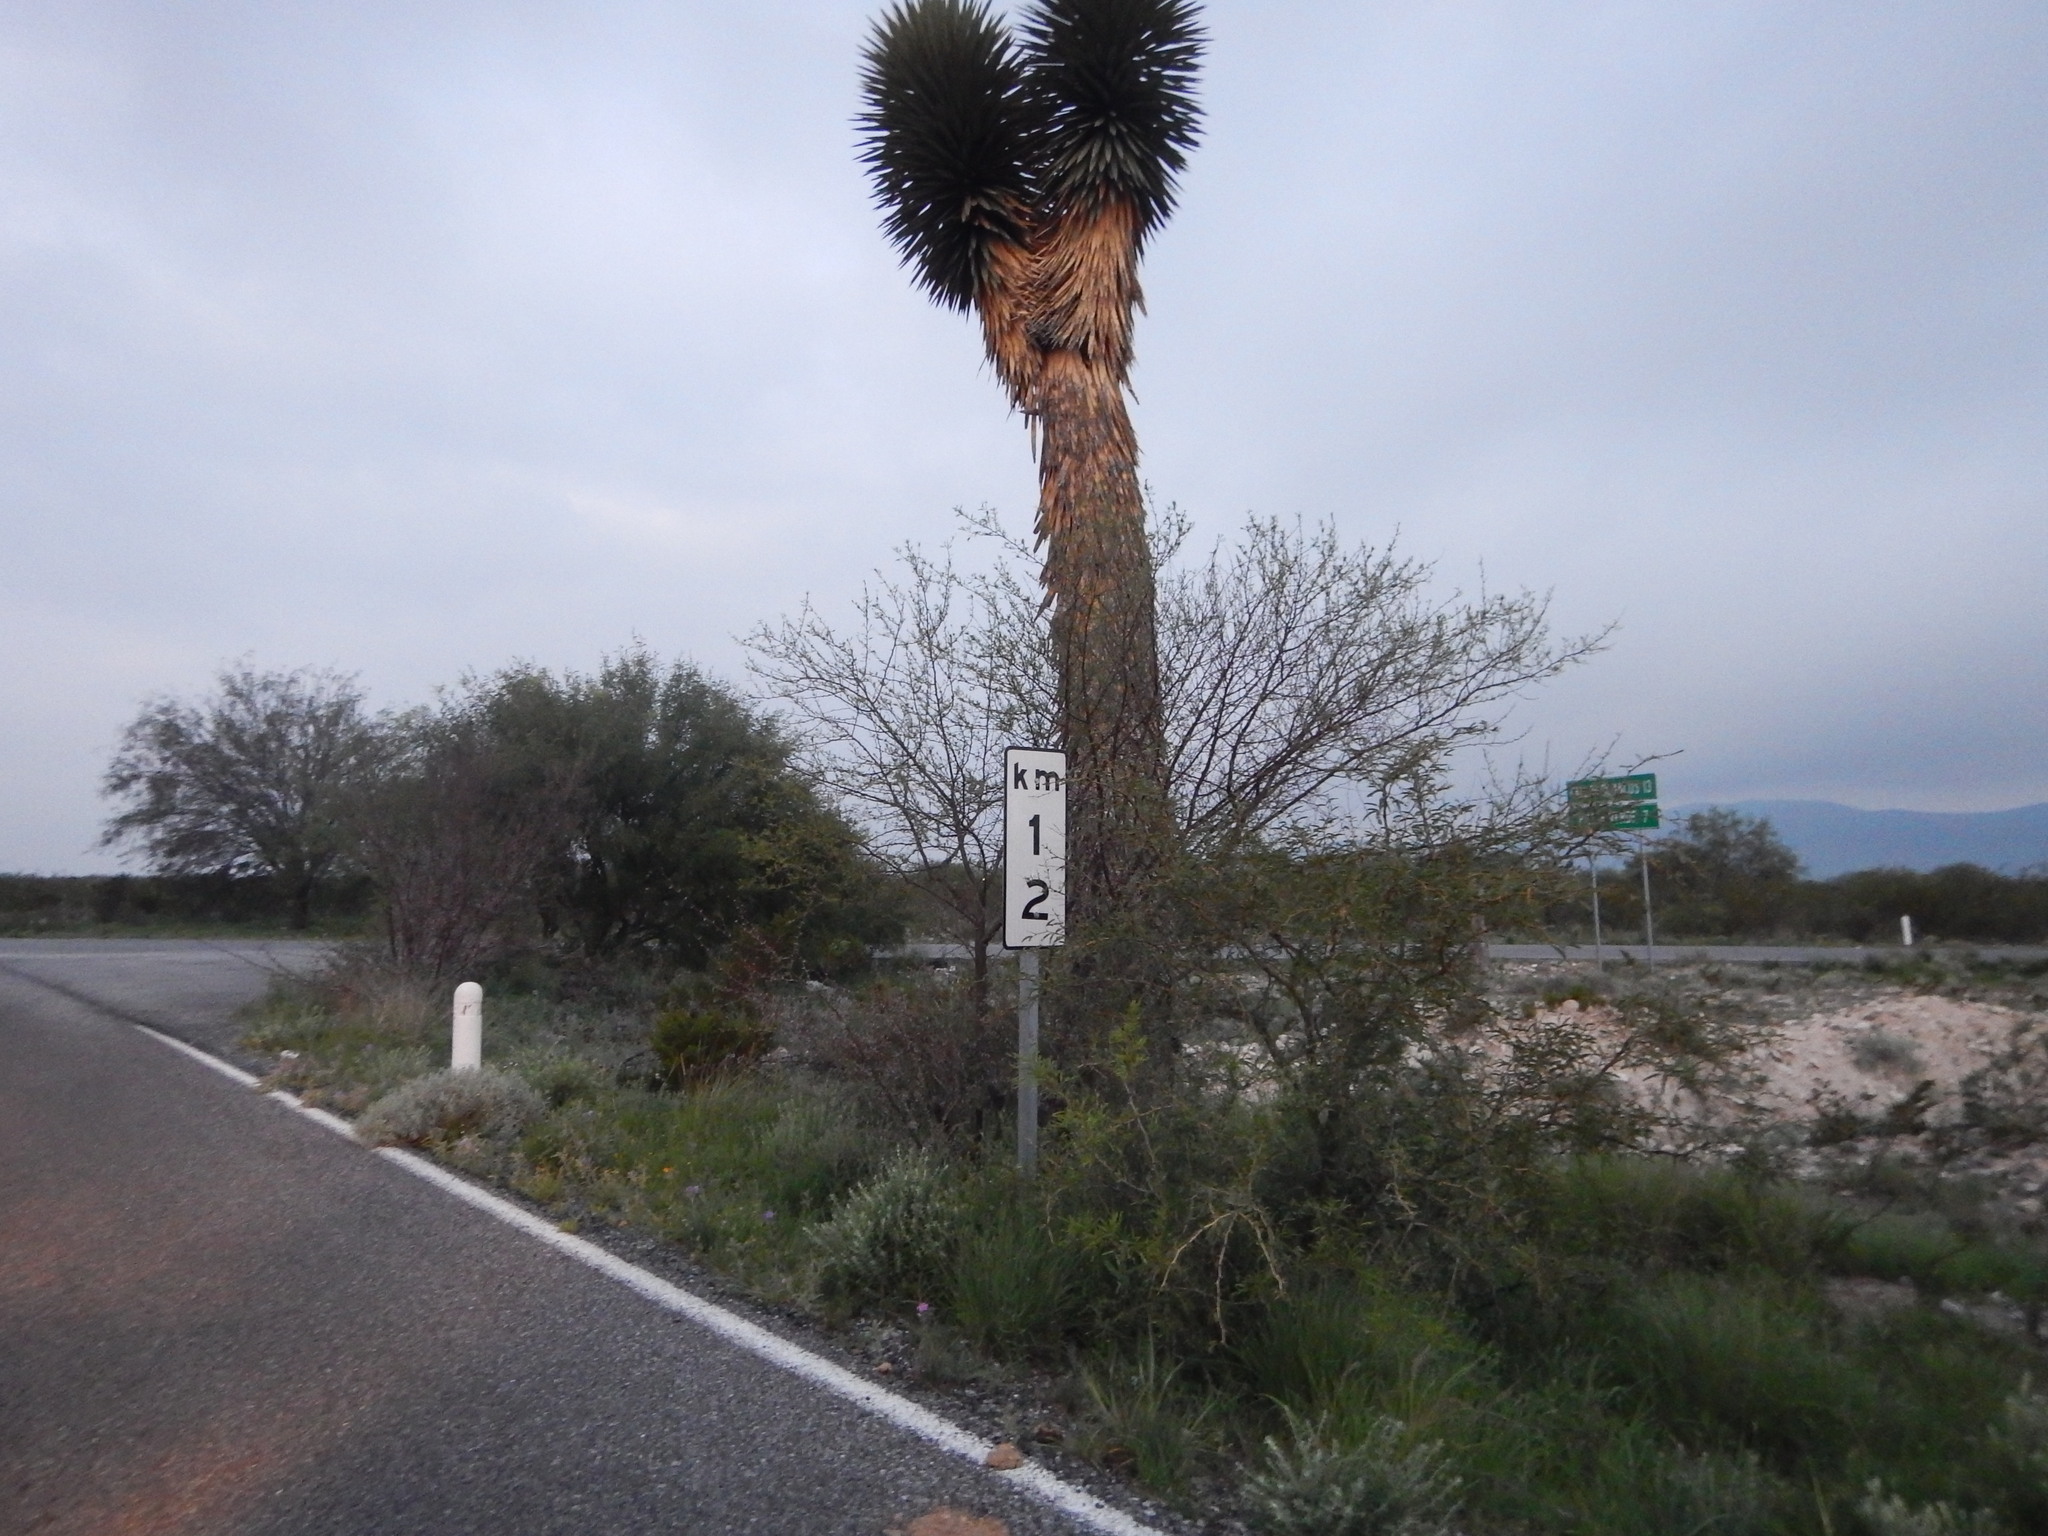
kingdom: Plantae
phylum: Tracheophyta
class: Liliopsida
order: Asparagales
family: Asparagaceae
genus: Yucca
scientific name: Yucca filifera
